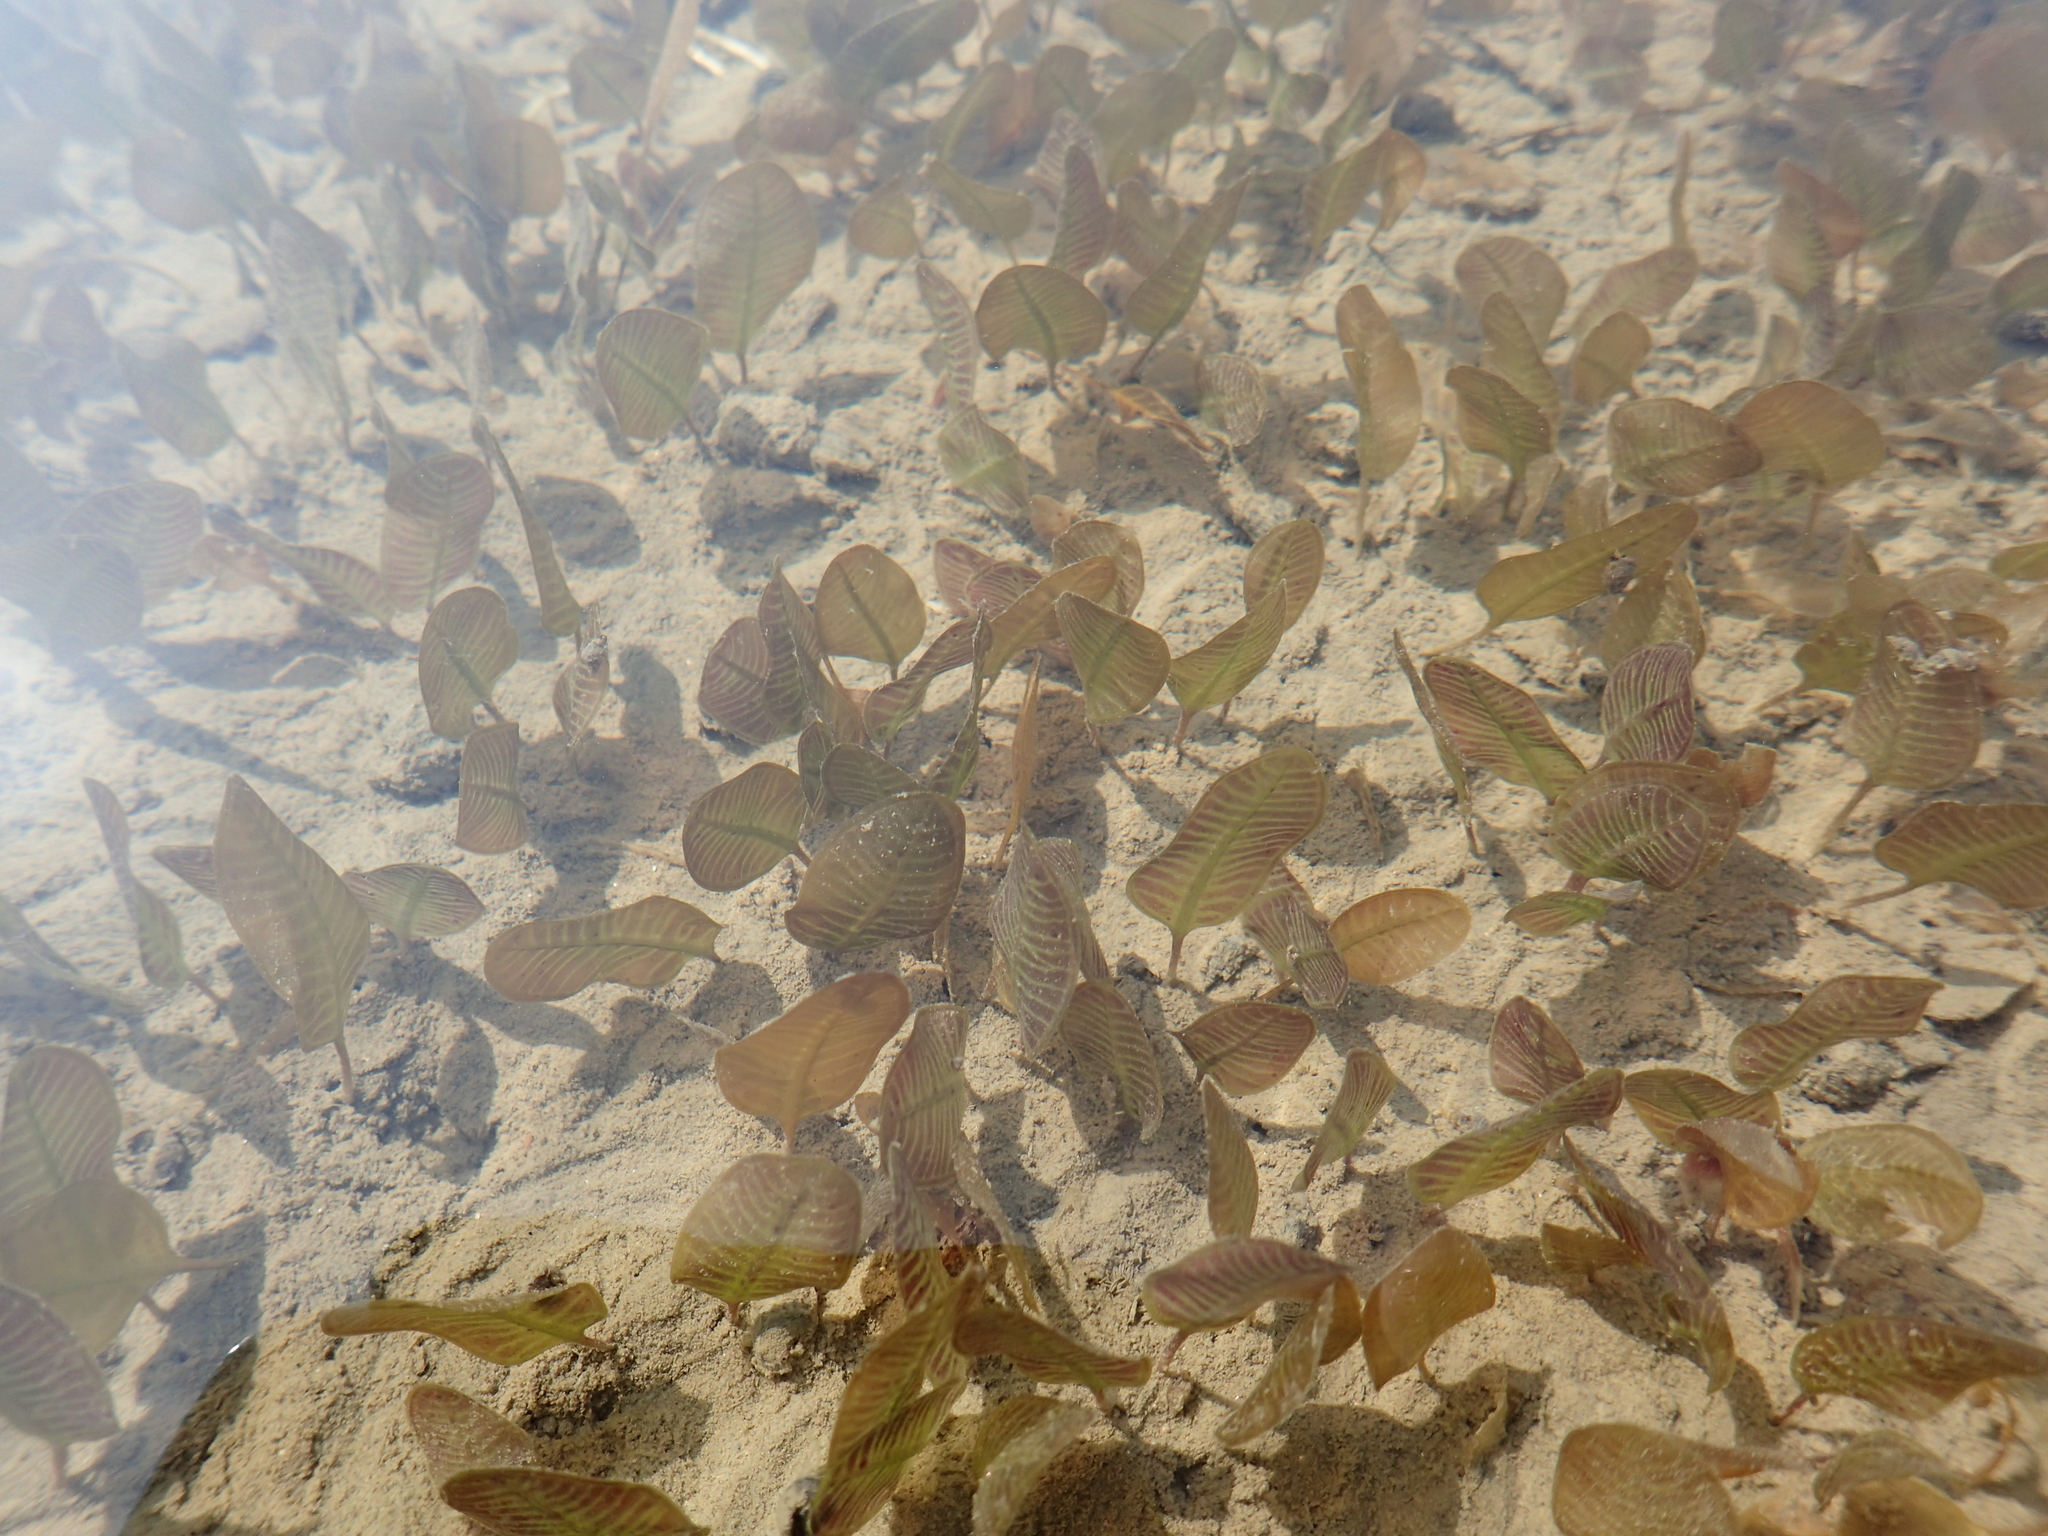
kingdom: Plantae
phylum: Tracheophyta
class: Liliopsida
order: Alismatales
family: Hydrocharitaceae
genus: Halophila
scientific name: Halophila ovalis
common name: Species code: ho
